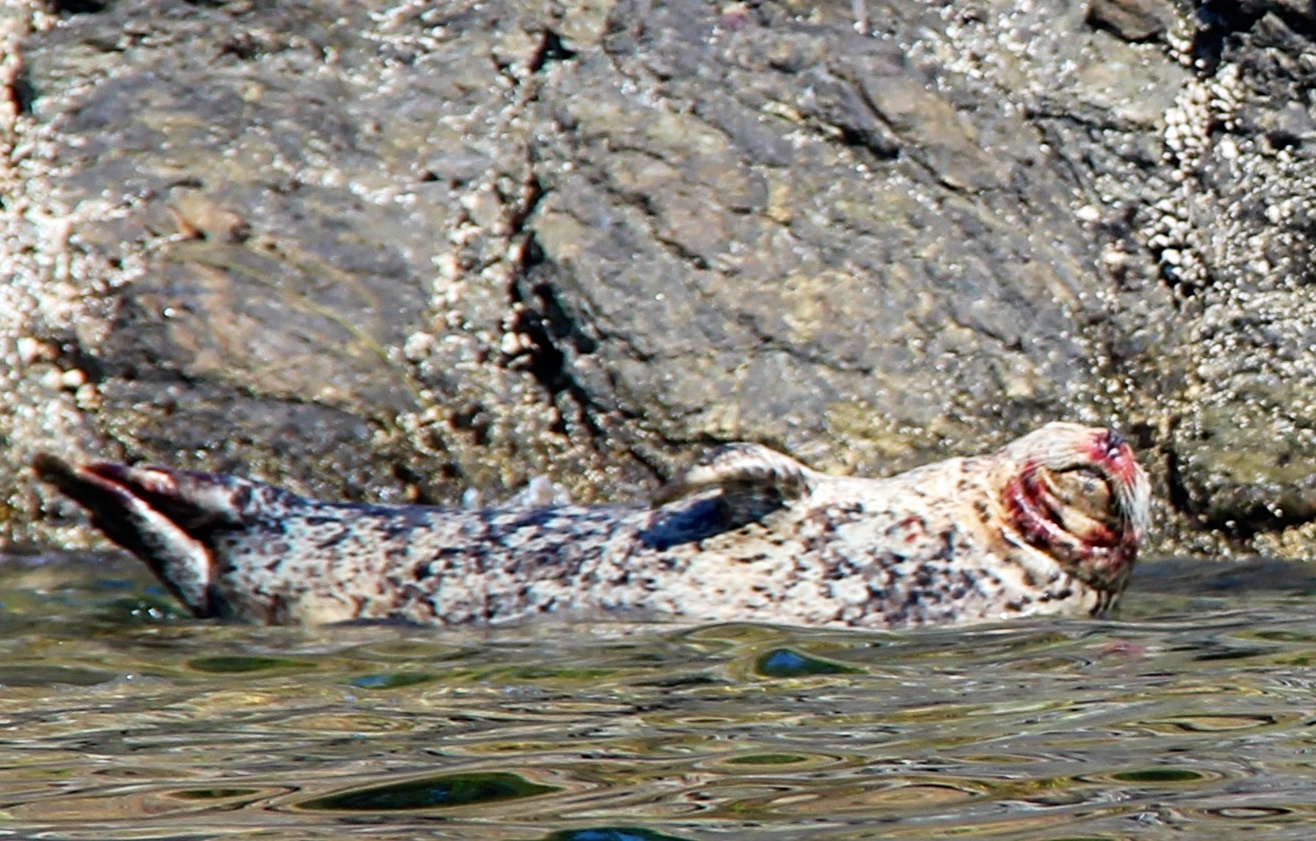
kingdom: Animalia
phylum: Chordata
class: Mammalia
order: Carnivora
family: Phocidae
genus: Phoca
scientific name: Phoca vitulina
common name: Harbor seal
